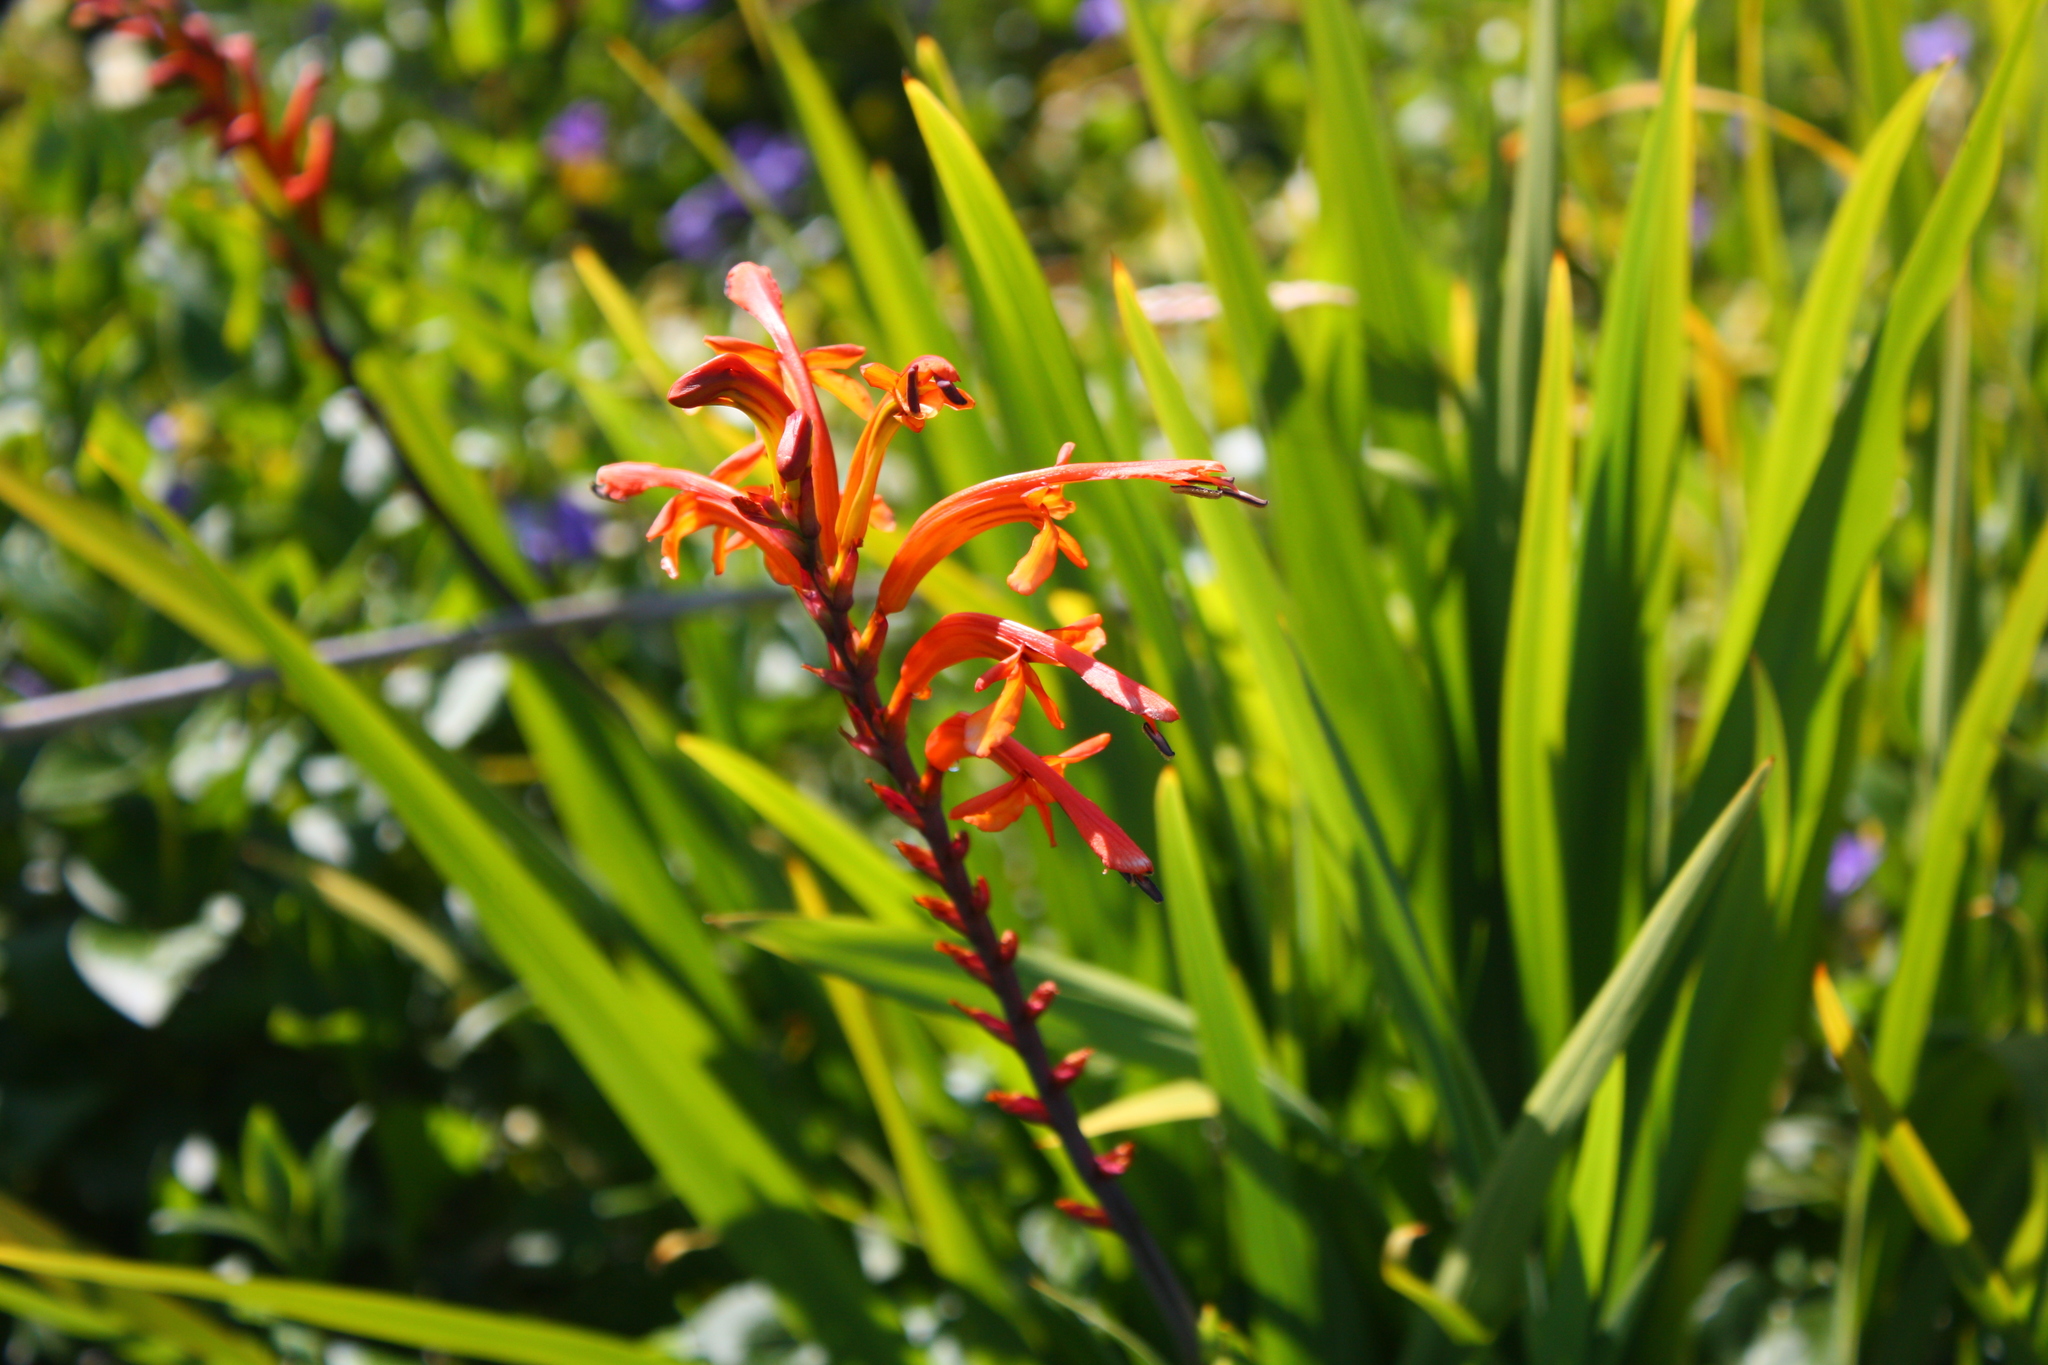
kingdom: Plantae
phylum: Tracheophyta
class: Liliopsida
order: Asparagales
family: Iridaceae
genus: Chasmanthe
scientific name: Chasmanthe floribunda
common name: African cornflag
